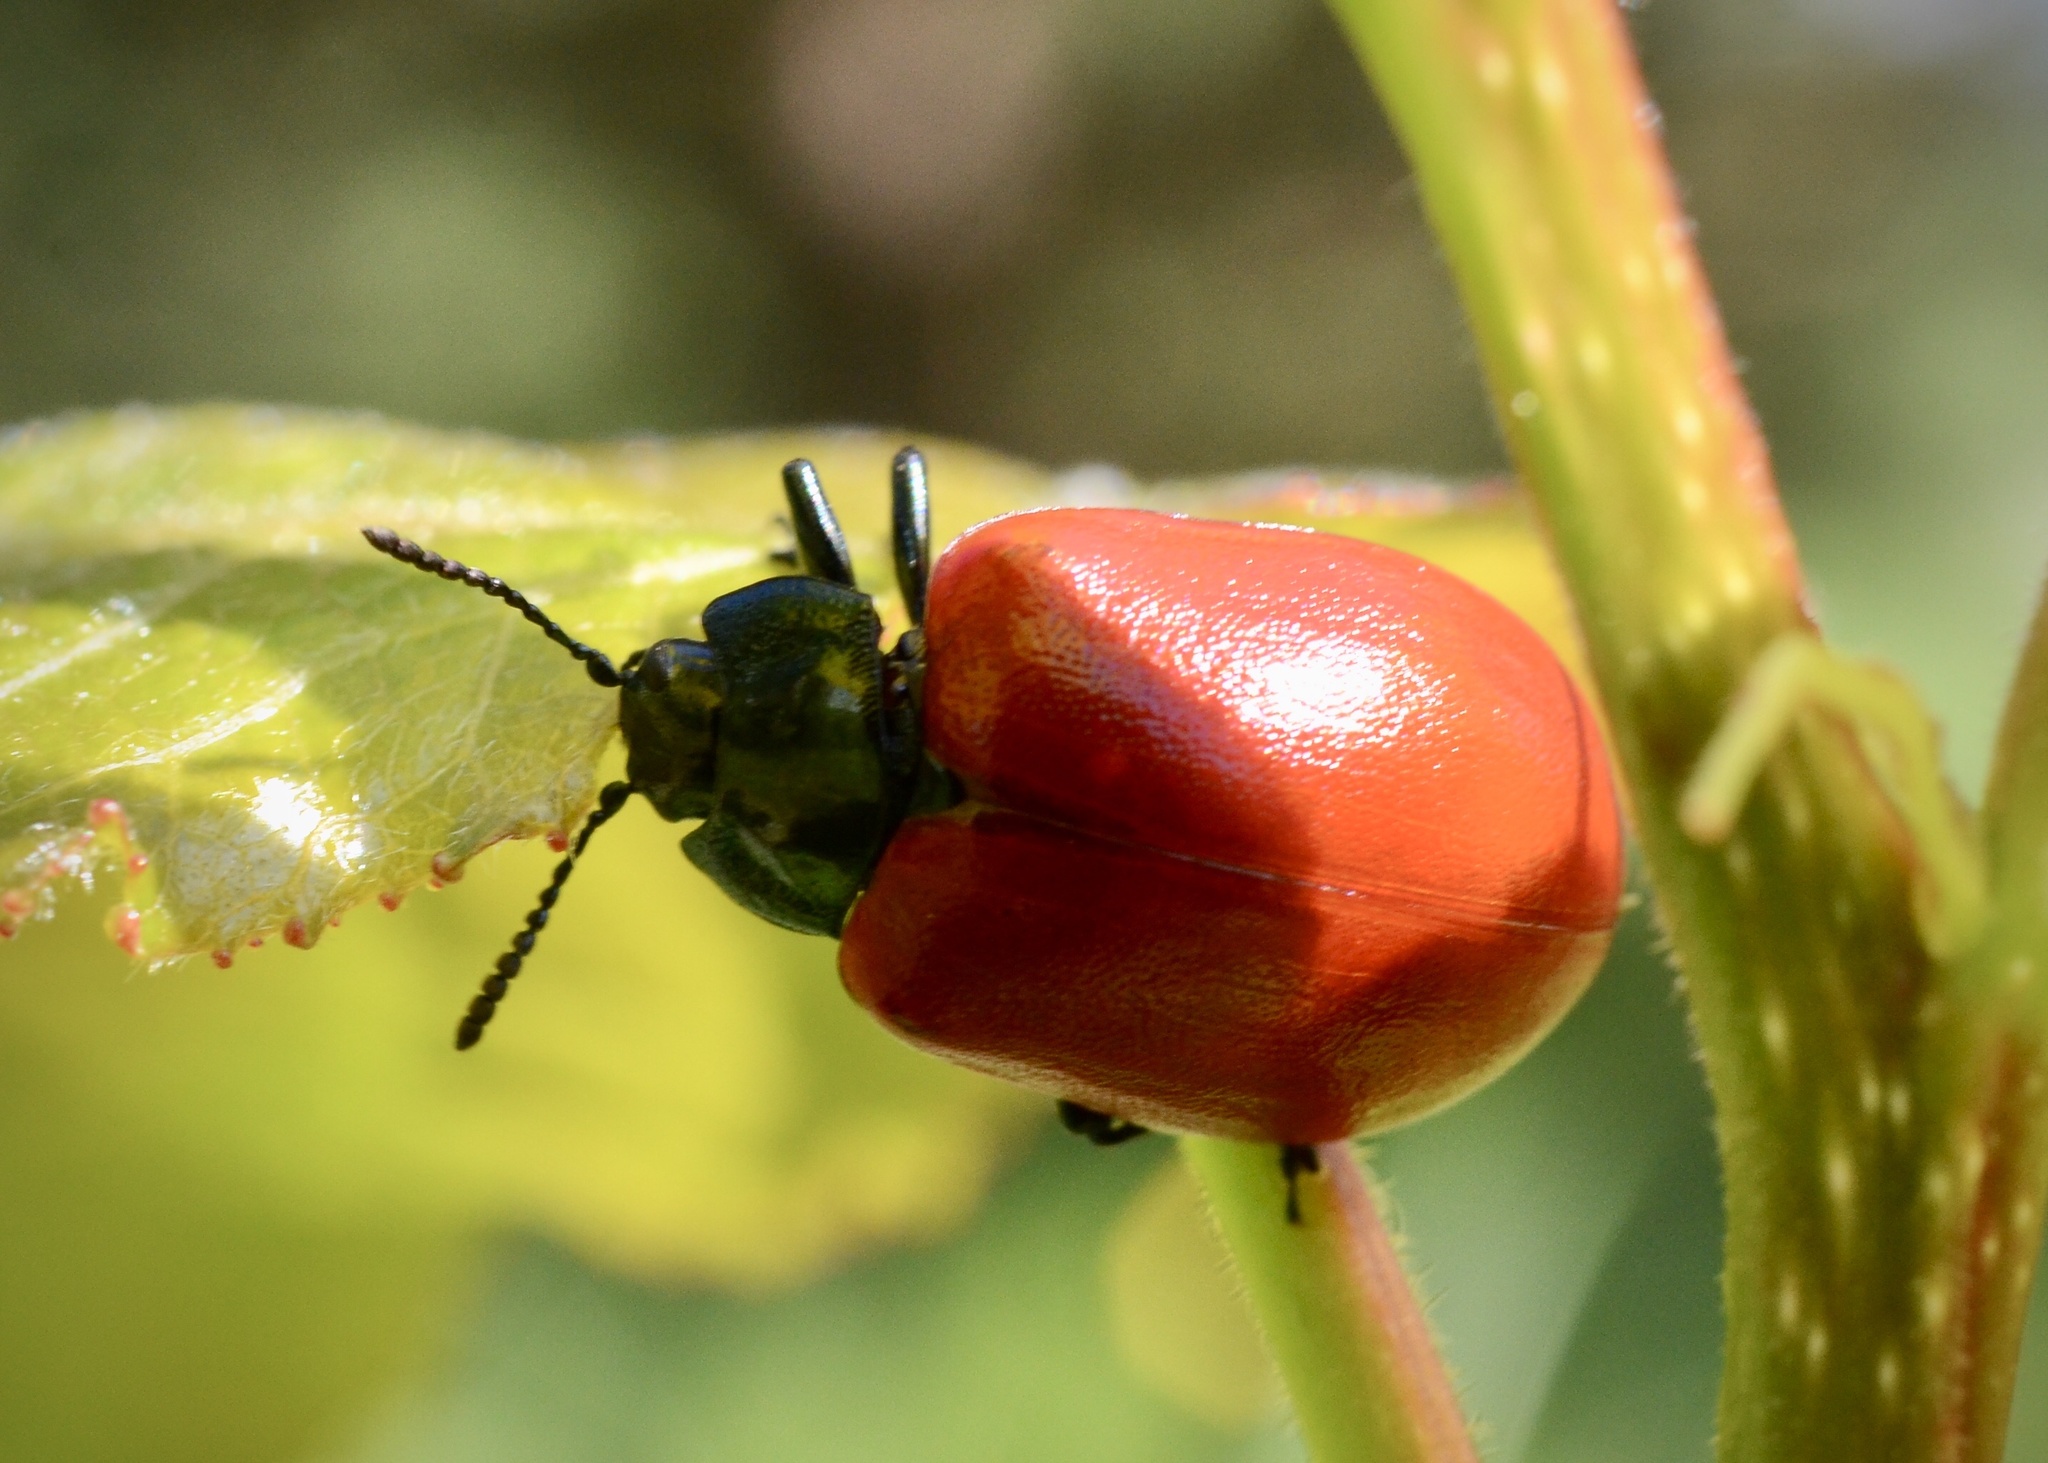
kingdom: Animalia
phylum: Arthropoda
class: Insecta
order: Coleoptera
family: Chrysomelidae
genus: Chrysomela
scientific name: Chrysomela populi
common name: Red poplar leaf beetle
